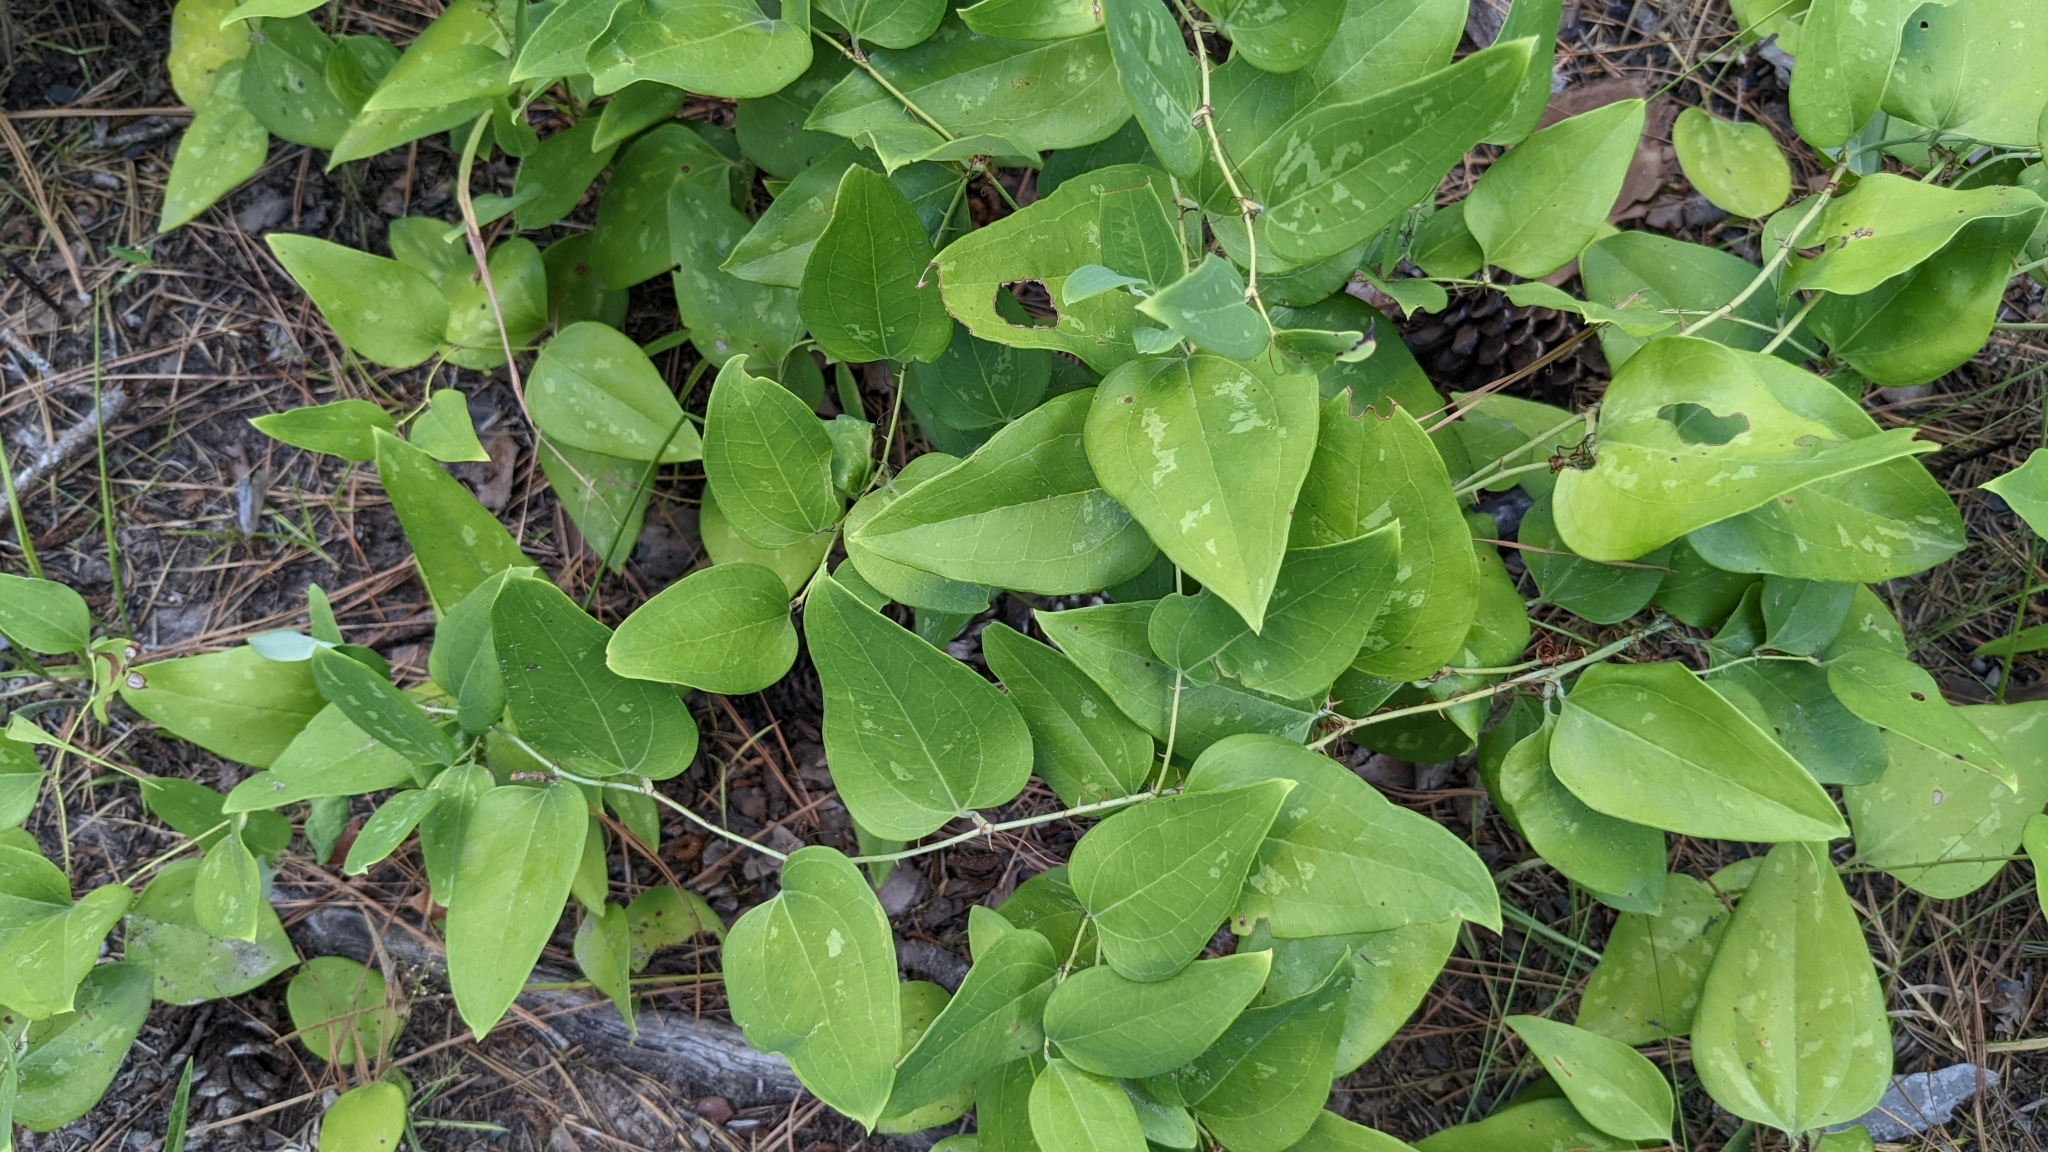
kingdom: Plantae
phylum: Tracheophyta
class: Liliopsida
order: Liliales
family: Smilacaceae
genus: Smilax
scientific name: Smilax glauca
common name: Cat greenbrier
